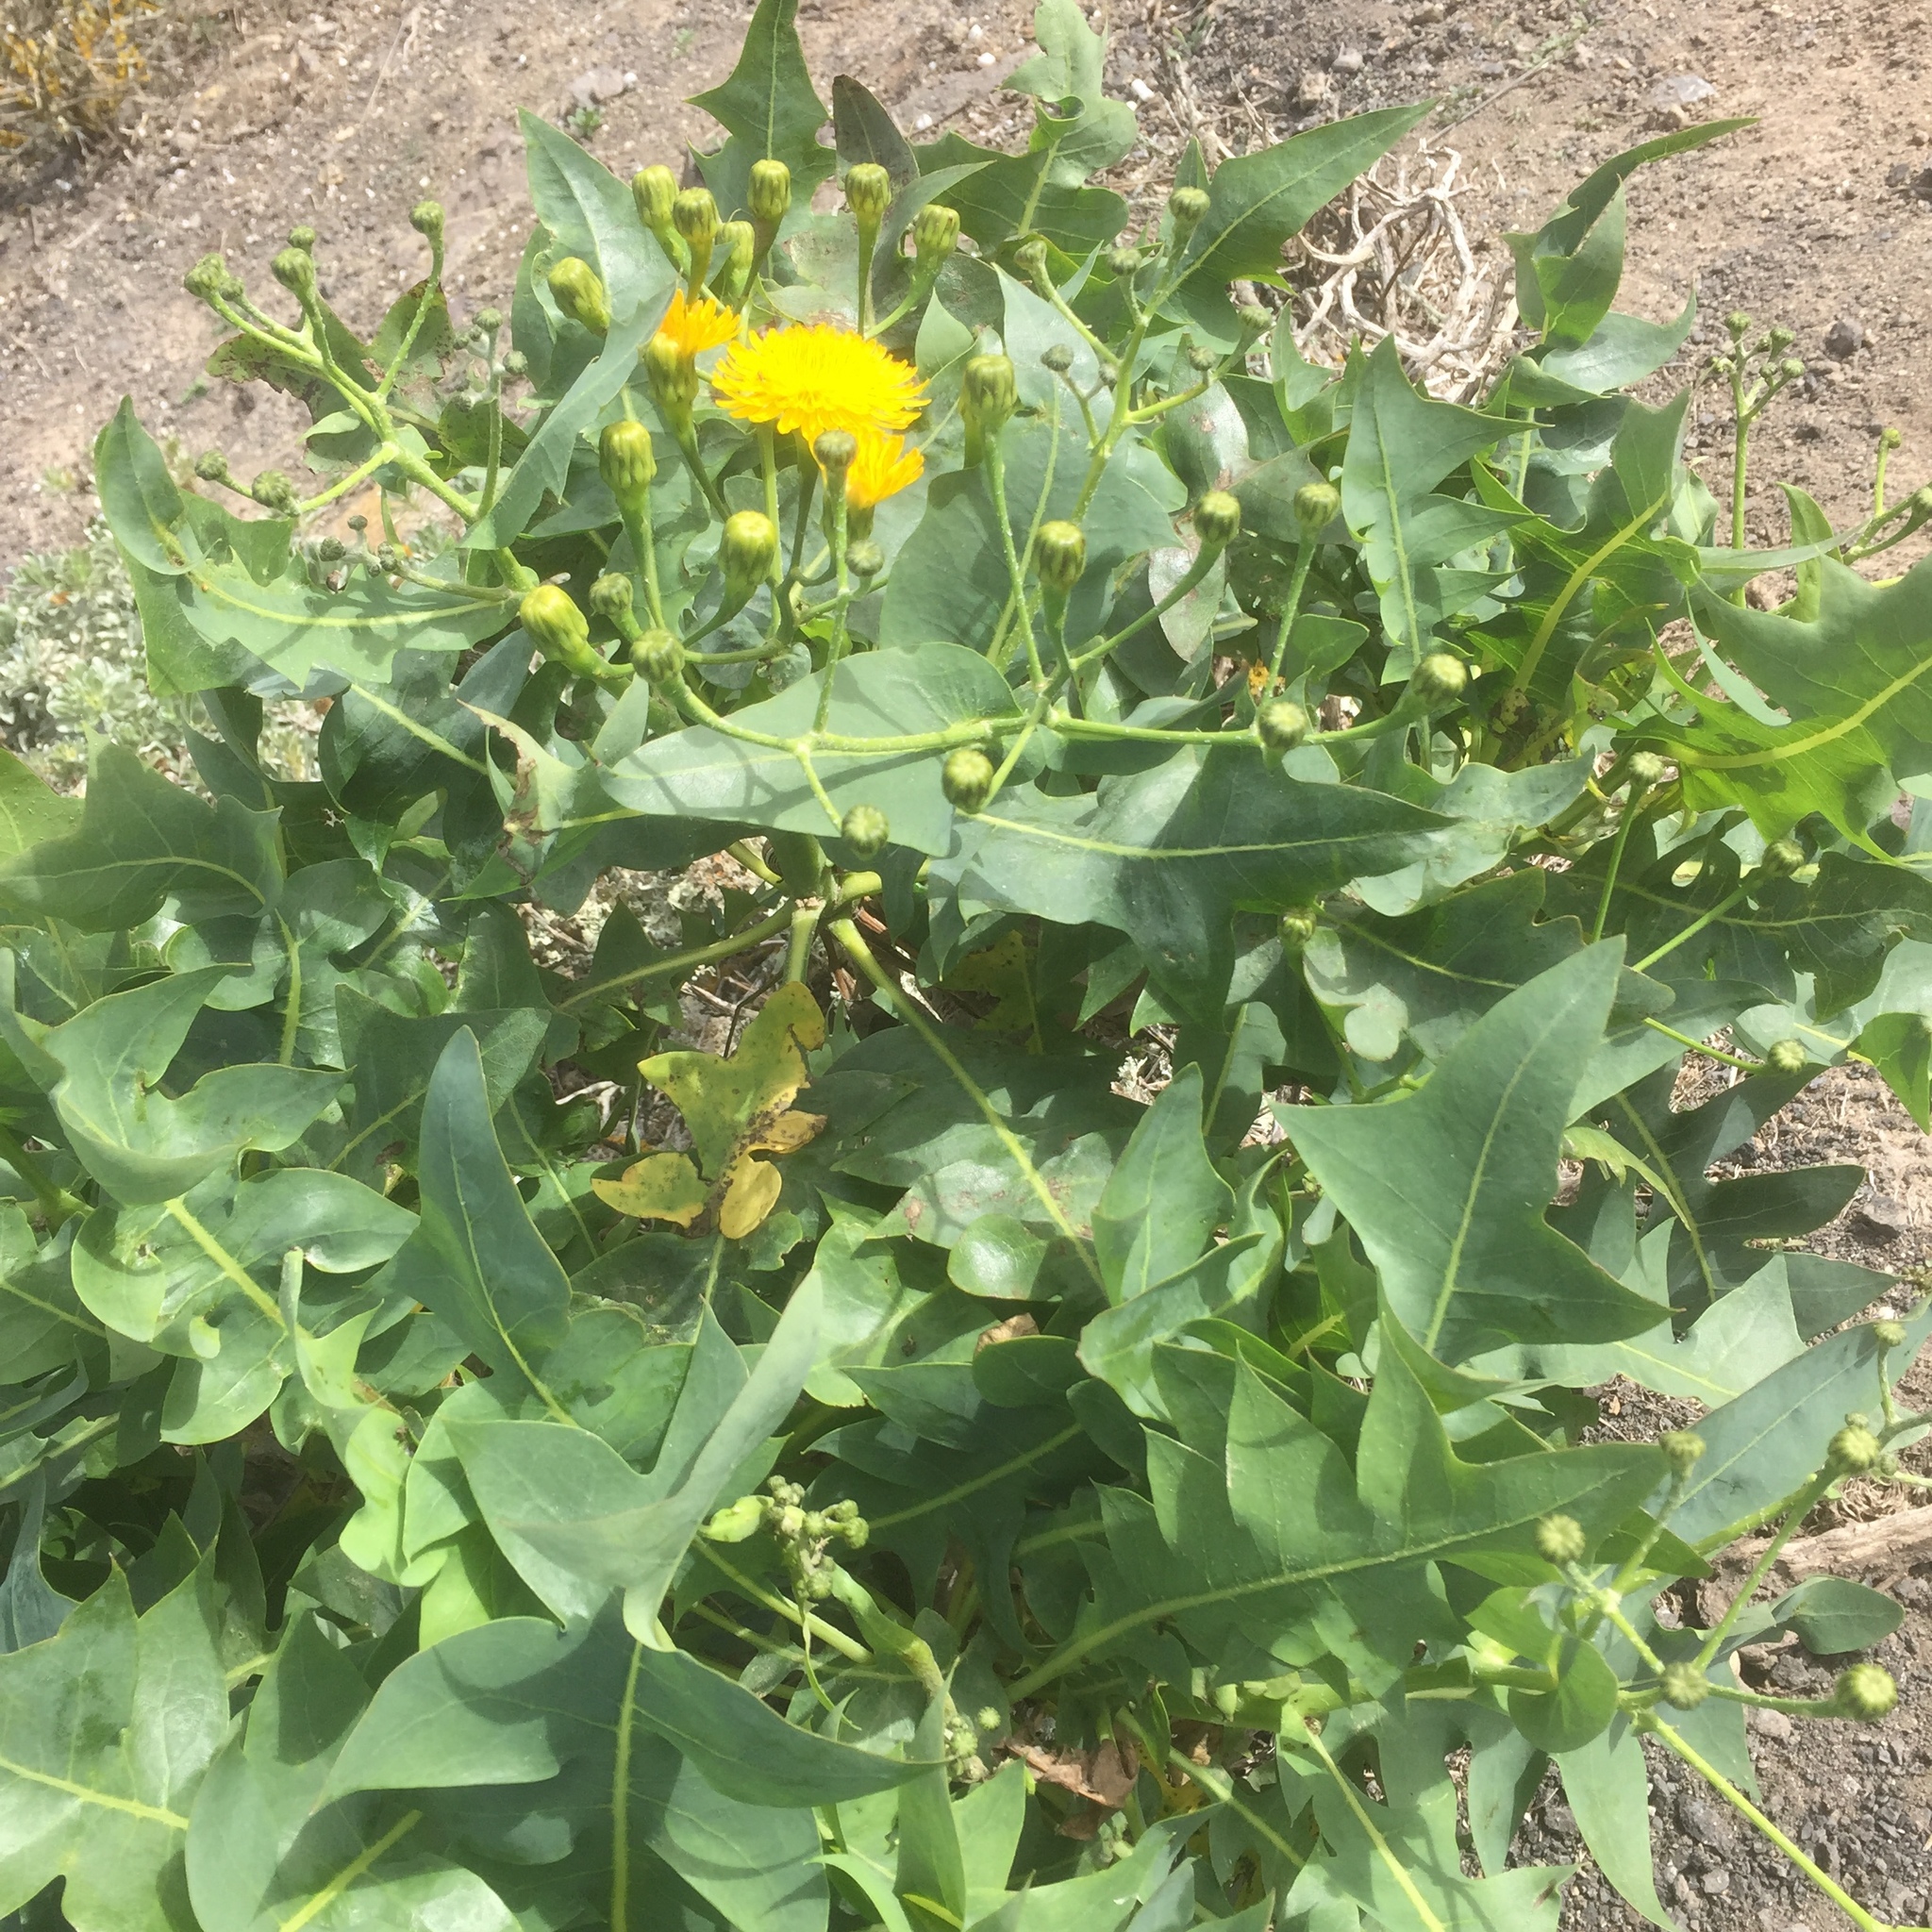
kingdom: Plantae
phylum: Tracheophyta
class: Magnoliopsida
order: Asterales
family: Asteraceae
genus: Sonchus
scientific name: Sonchus pinnatifidus
